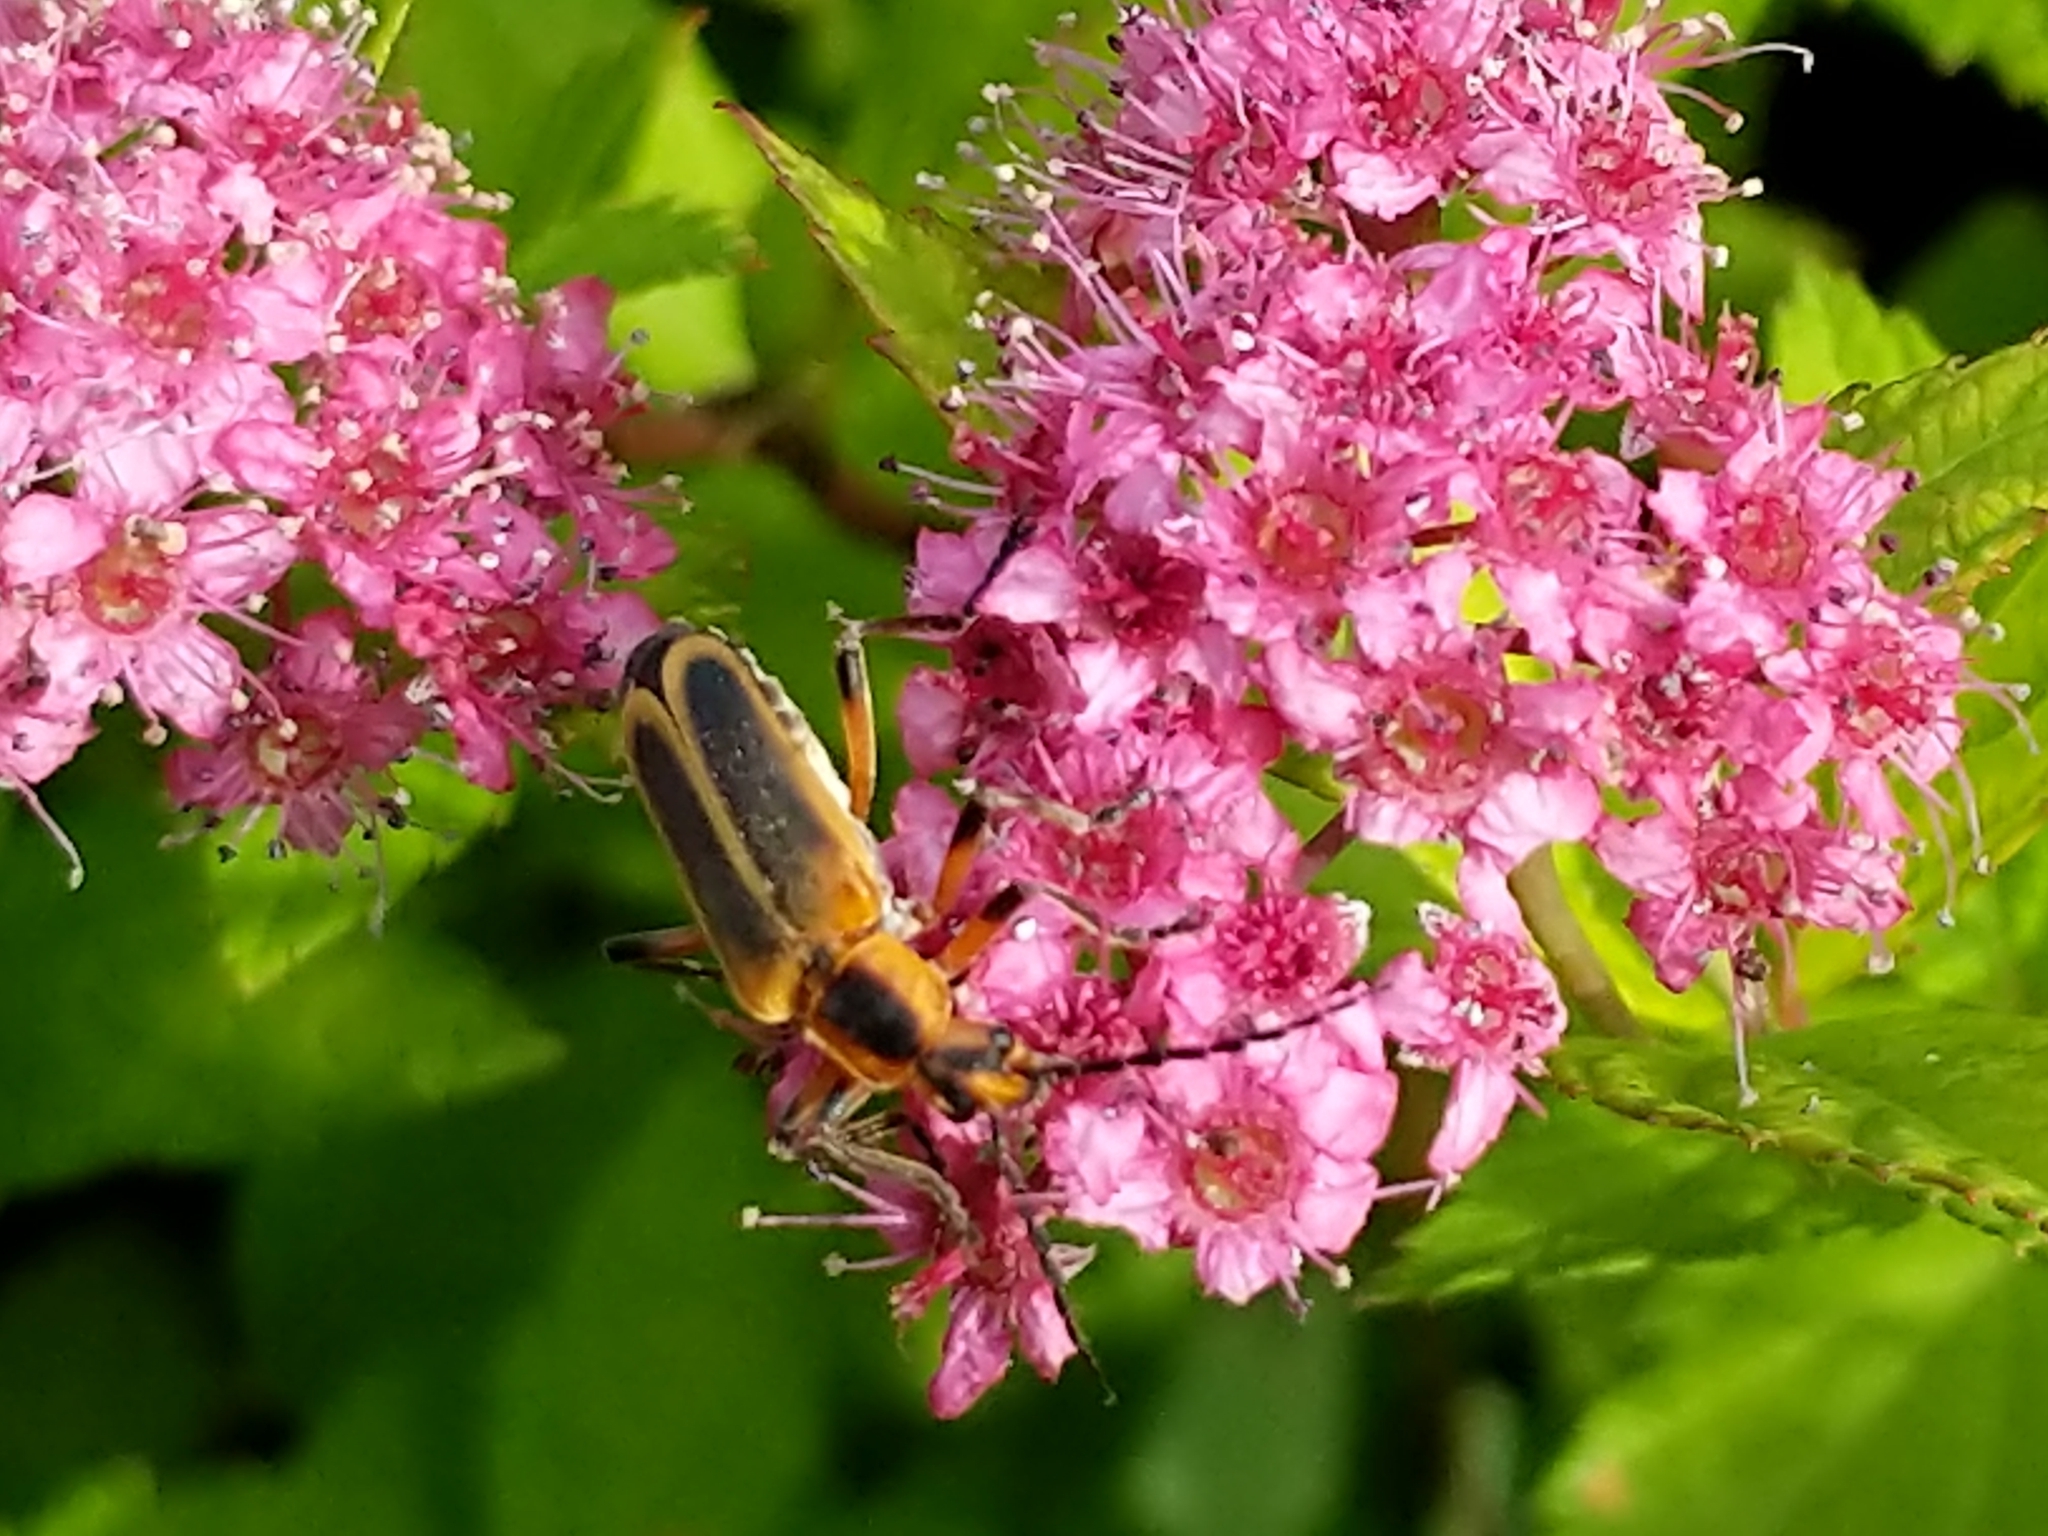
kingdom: Animalia
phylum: Arthropoda
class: Insecta
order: Coleoptera
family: Cantharidae
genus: Chauliognathus
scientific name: Chauliognathus marginatus
